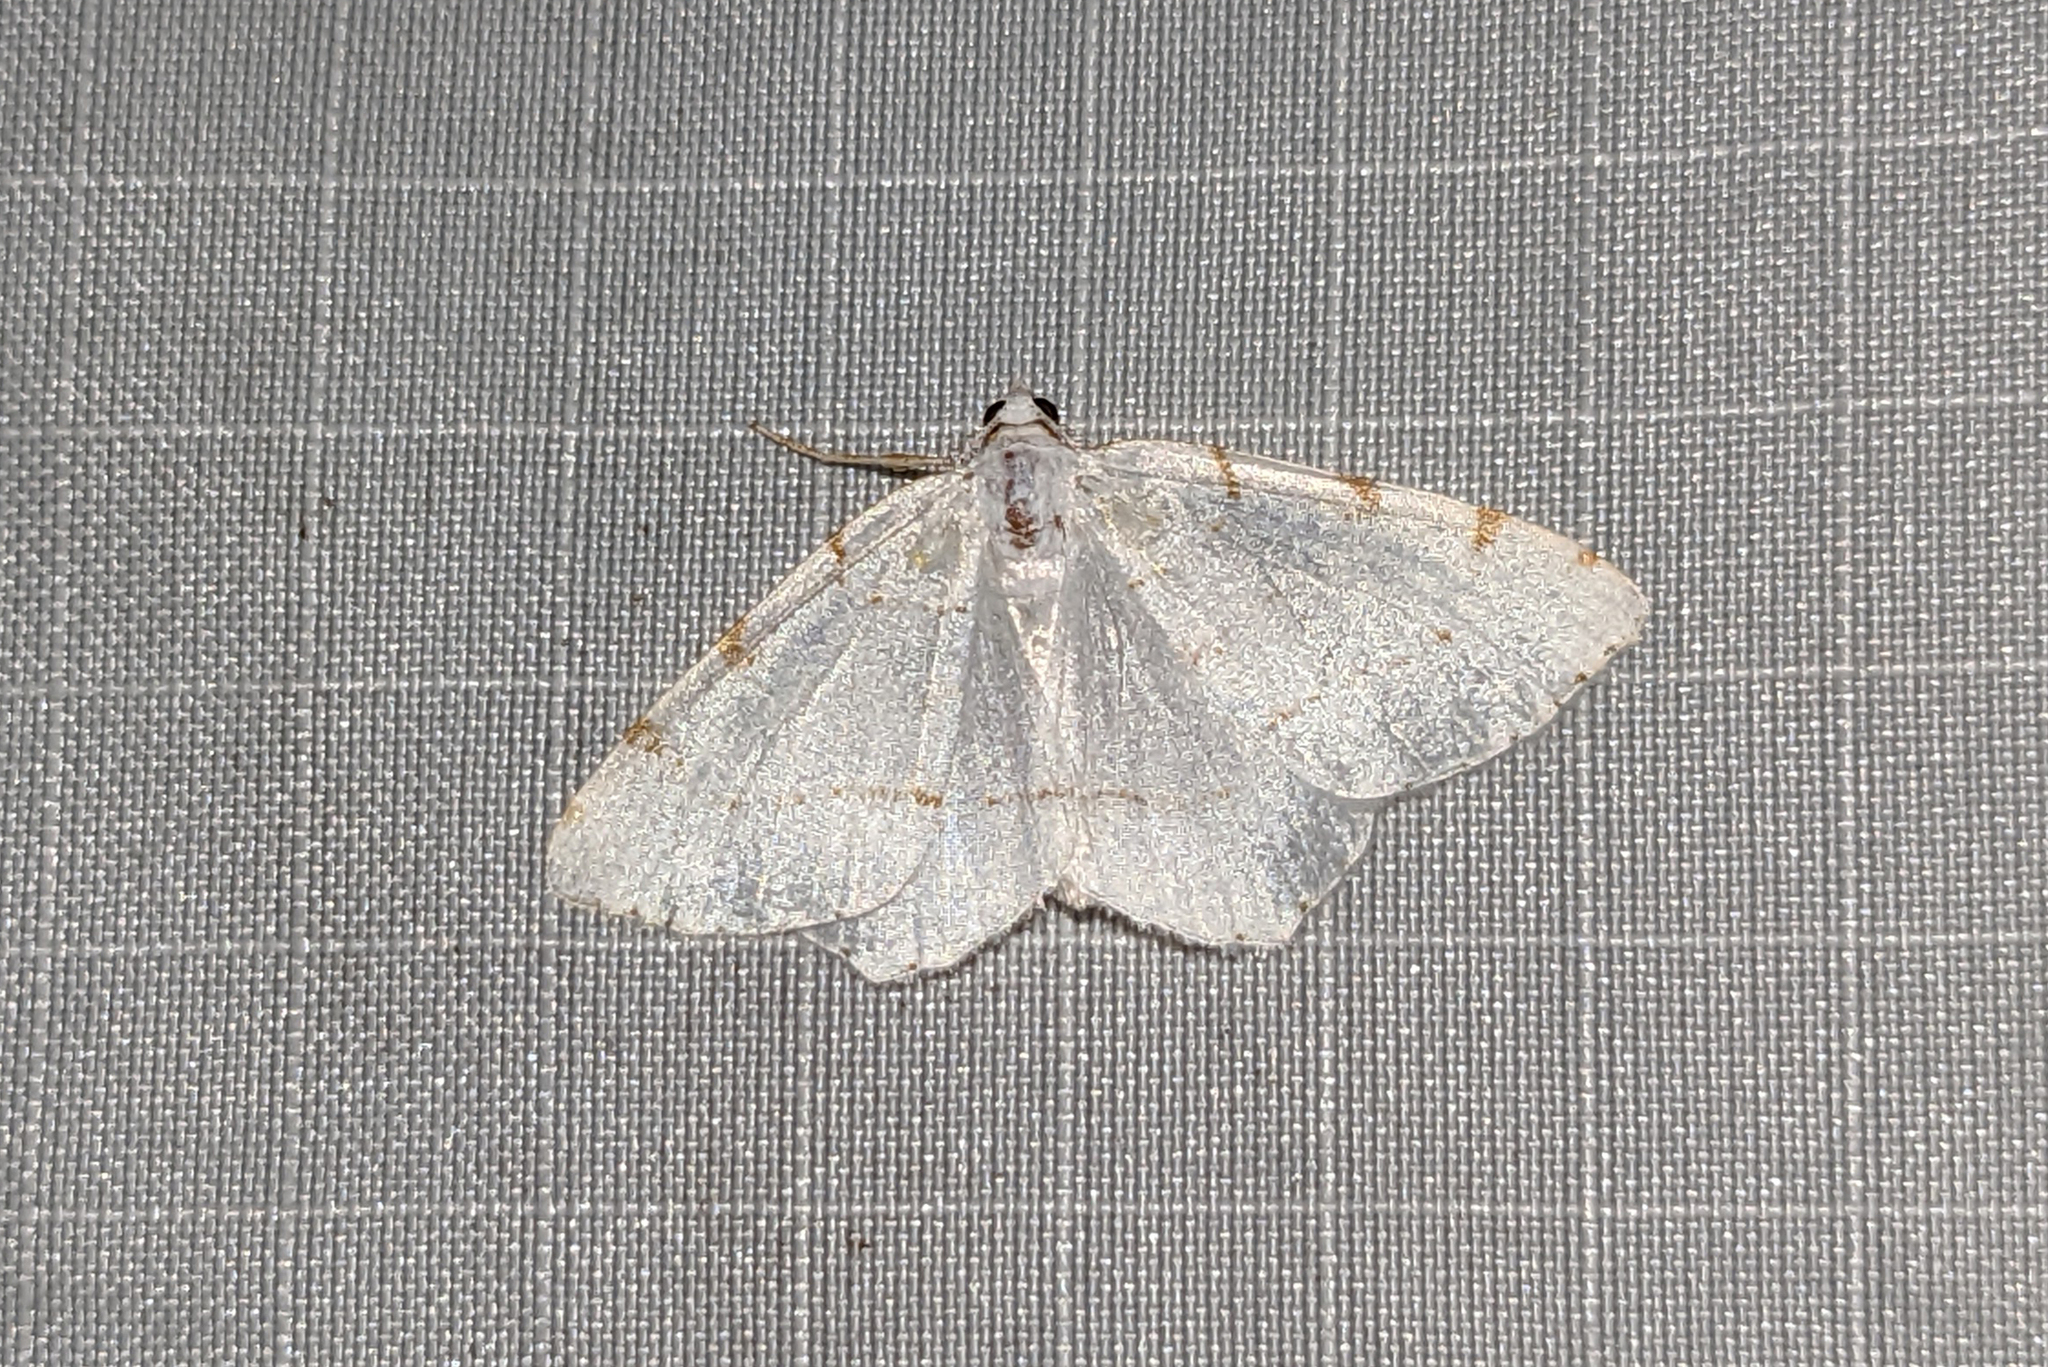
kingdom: Animalia
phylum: Arthropoda
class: Insecta
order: Lepidoptera
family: Geometridae
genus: Macaria
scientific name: Macaria pustularia
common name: Lesser maple spanworm moth
